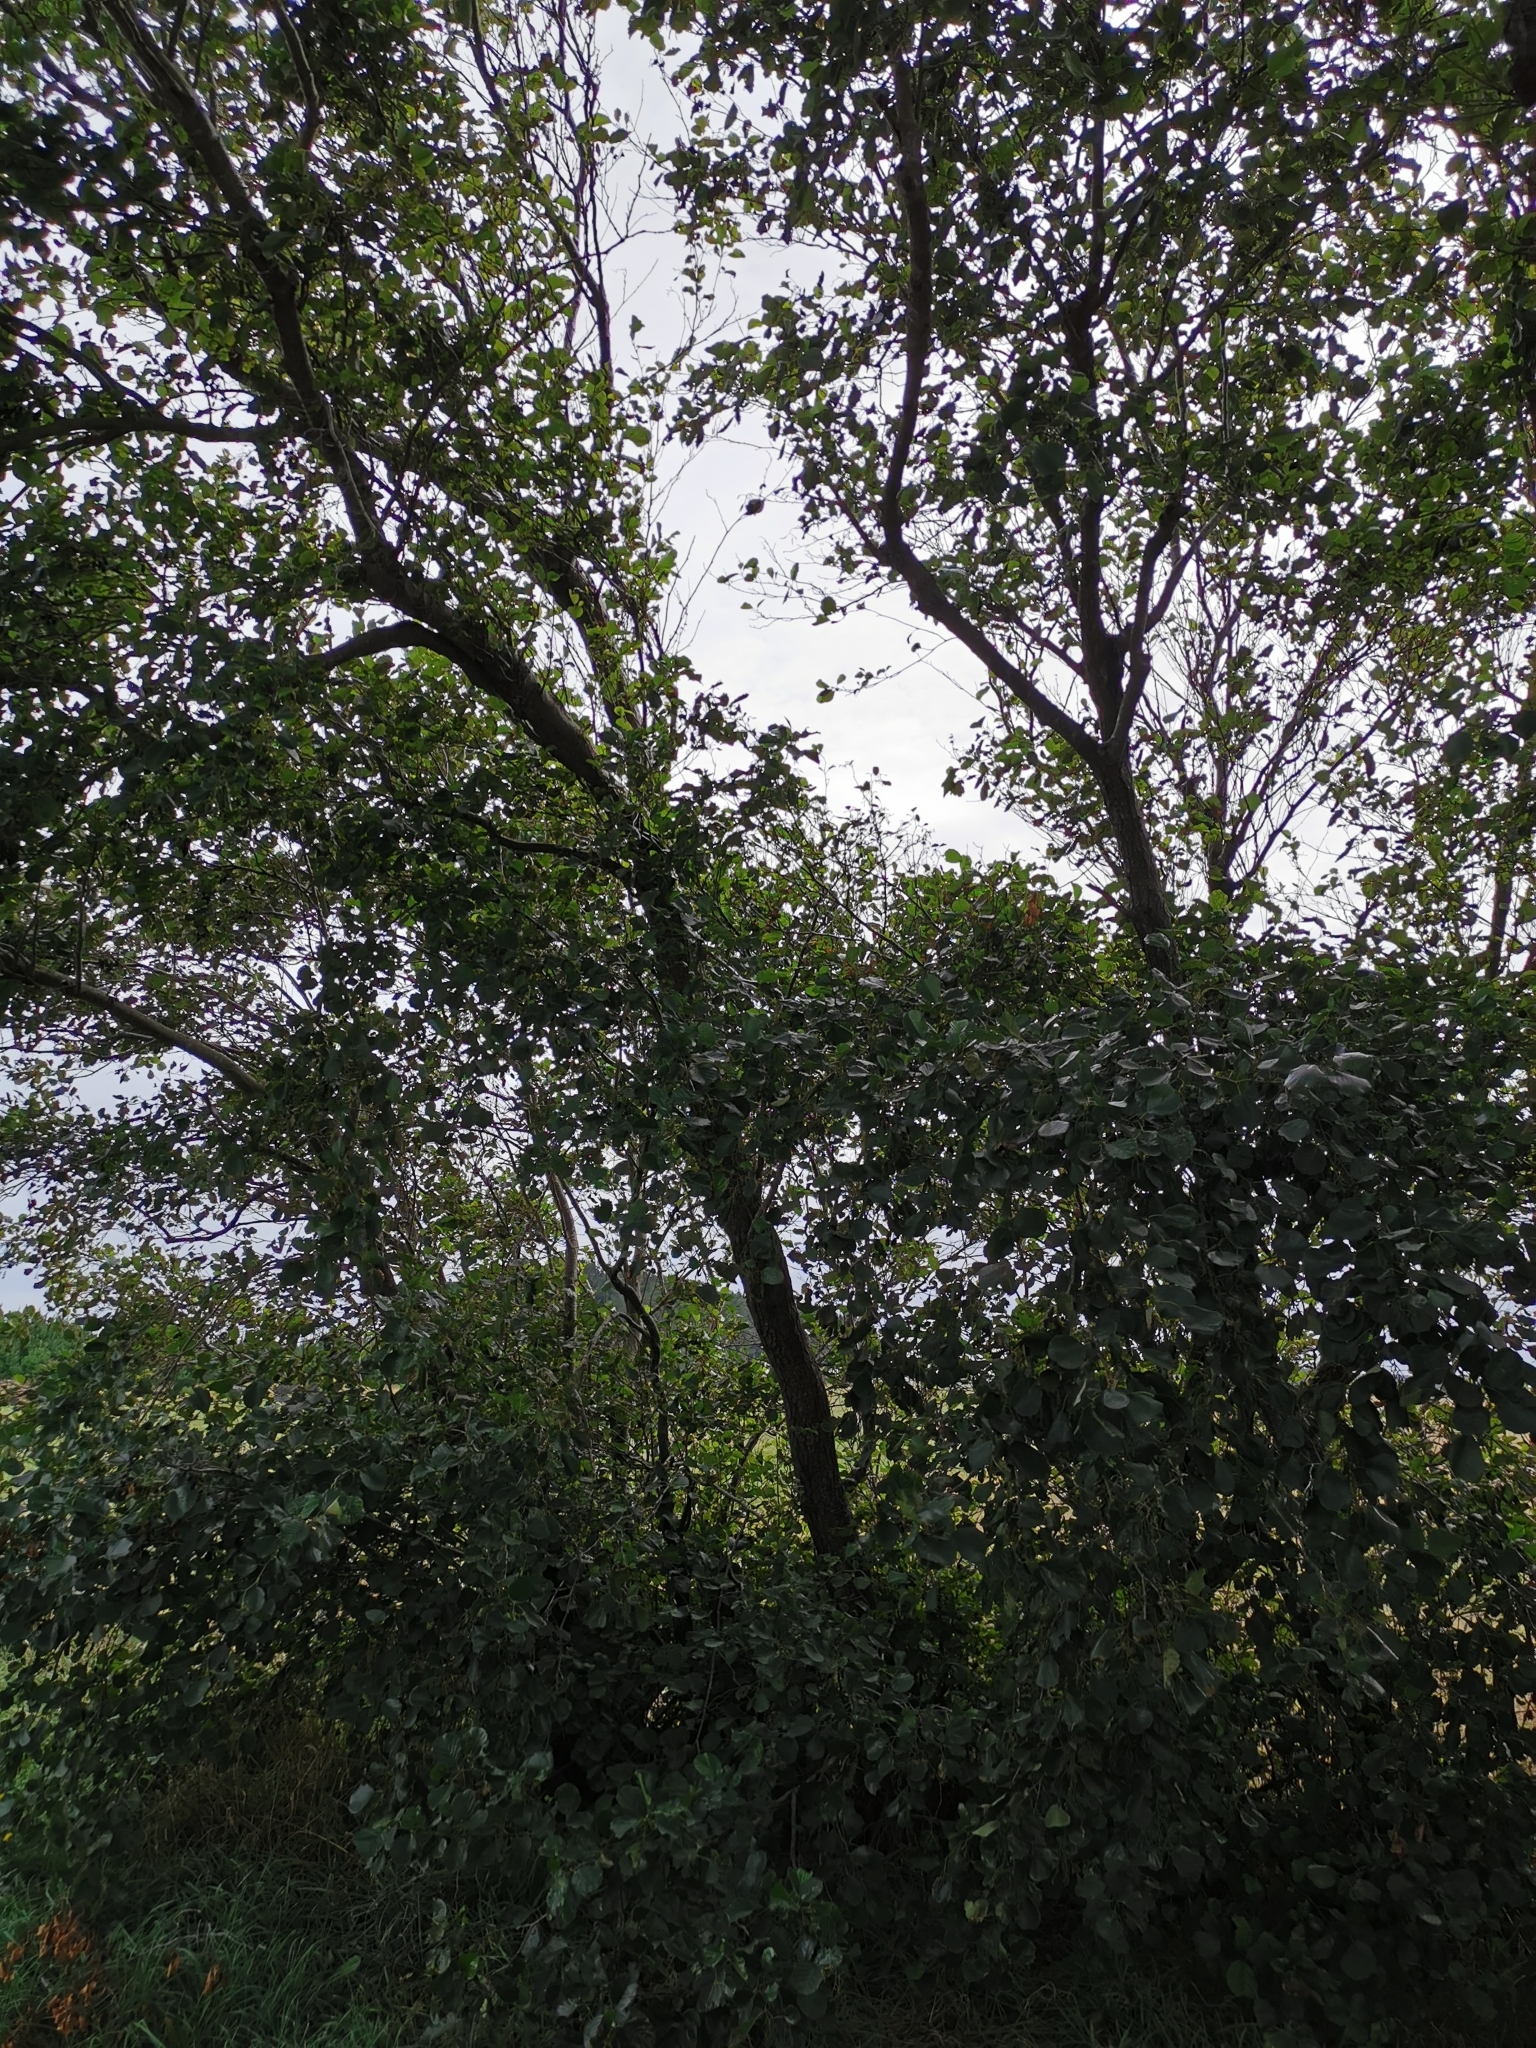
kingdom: Plantae
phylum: Tracheophyta
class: Magnoliopsida
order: Fagales
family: Betulaceae
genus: Alnus
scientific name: Alnus glutinosa
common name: Black alder
